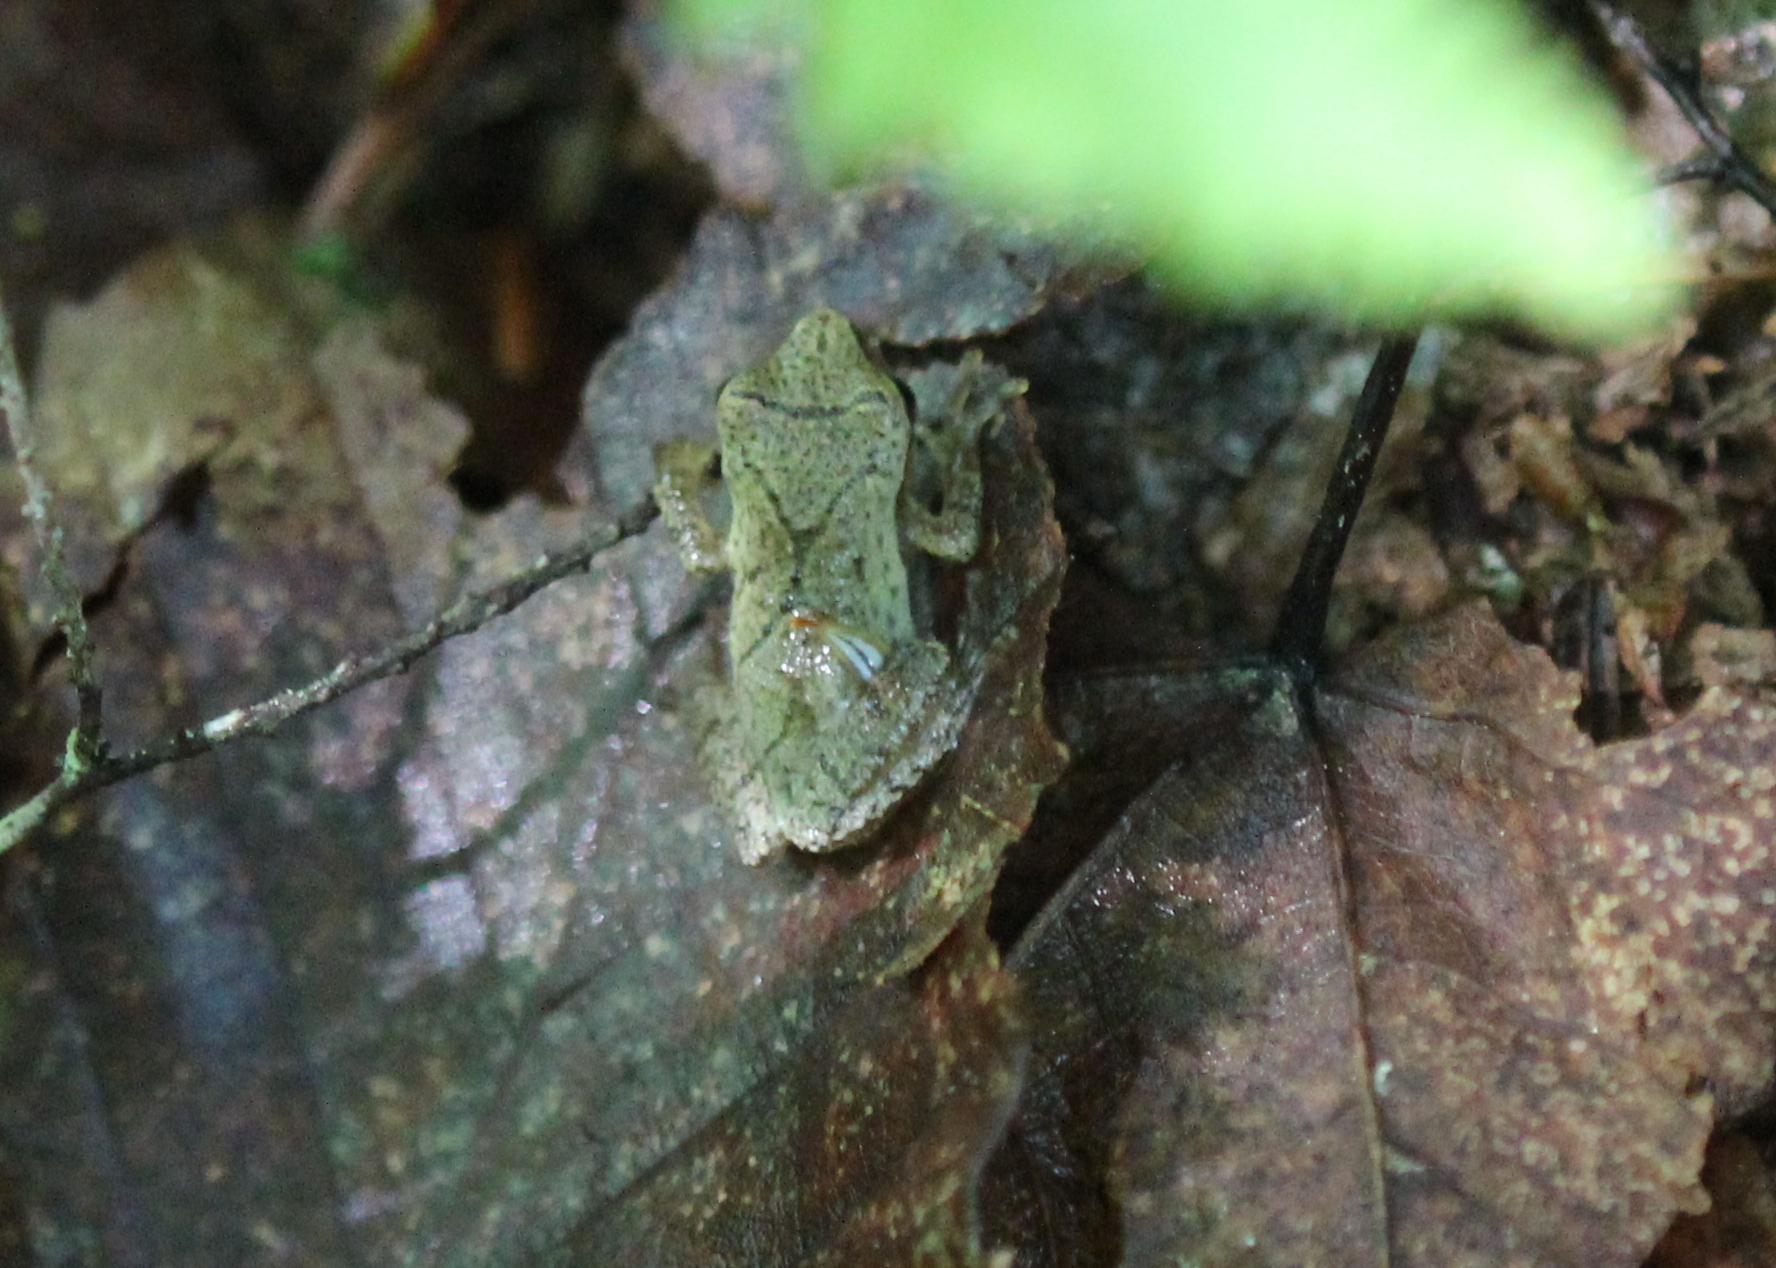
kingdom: Animalia
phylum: Chordata
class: Amphibia
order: Anura
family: Hylidae
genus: Pseudacris
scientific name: Pseudacris crucifer
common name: Spring peeper
